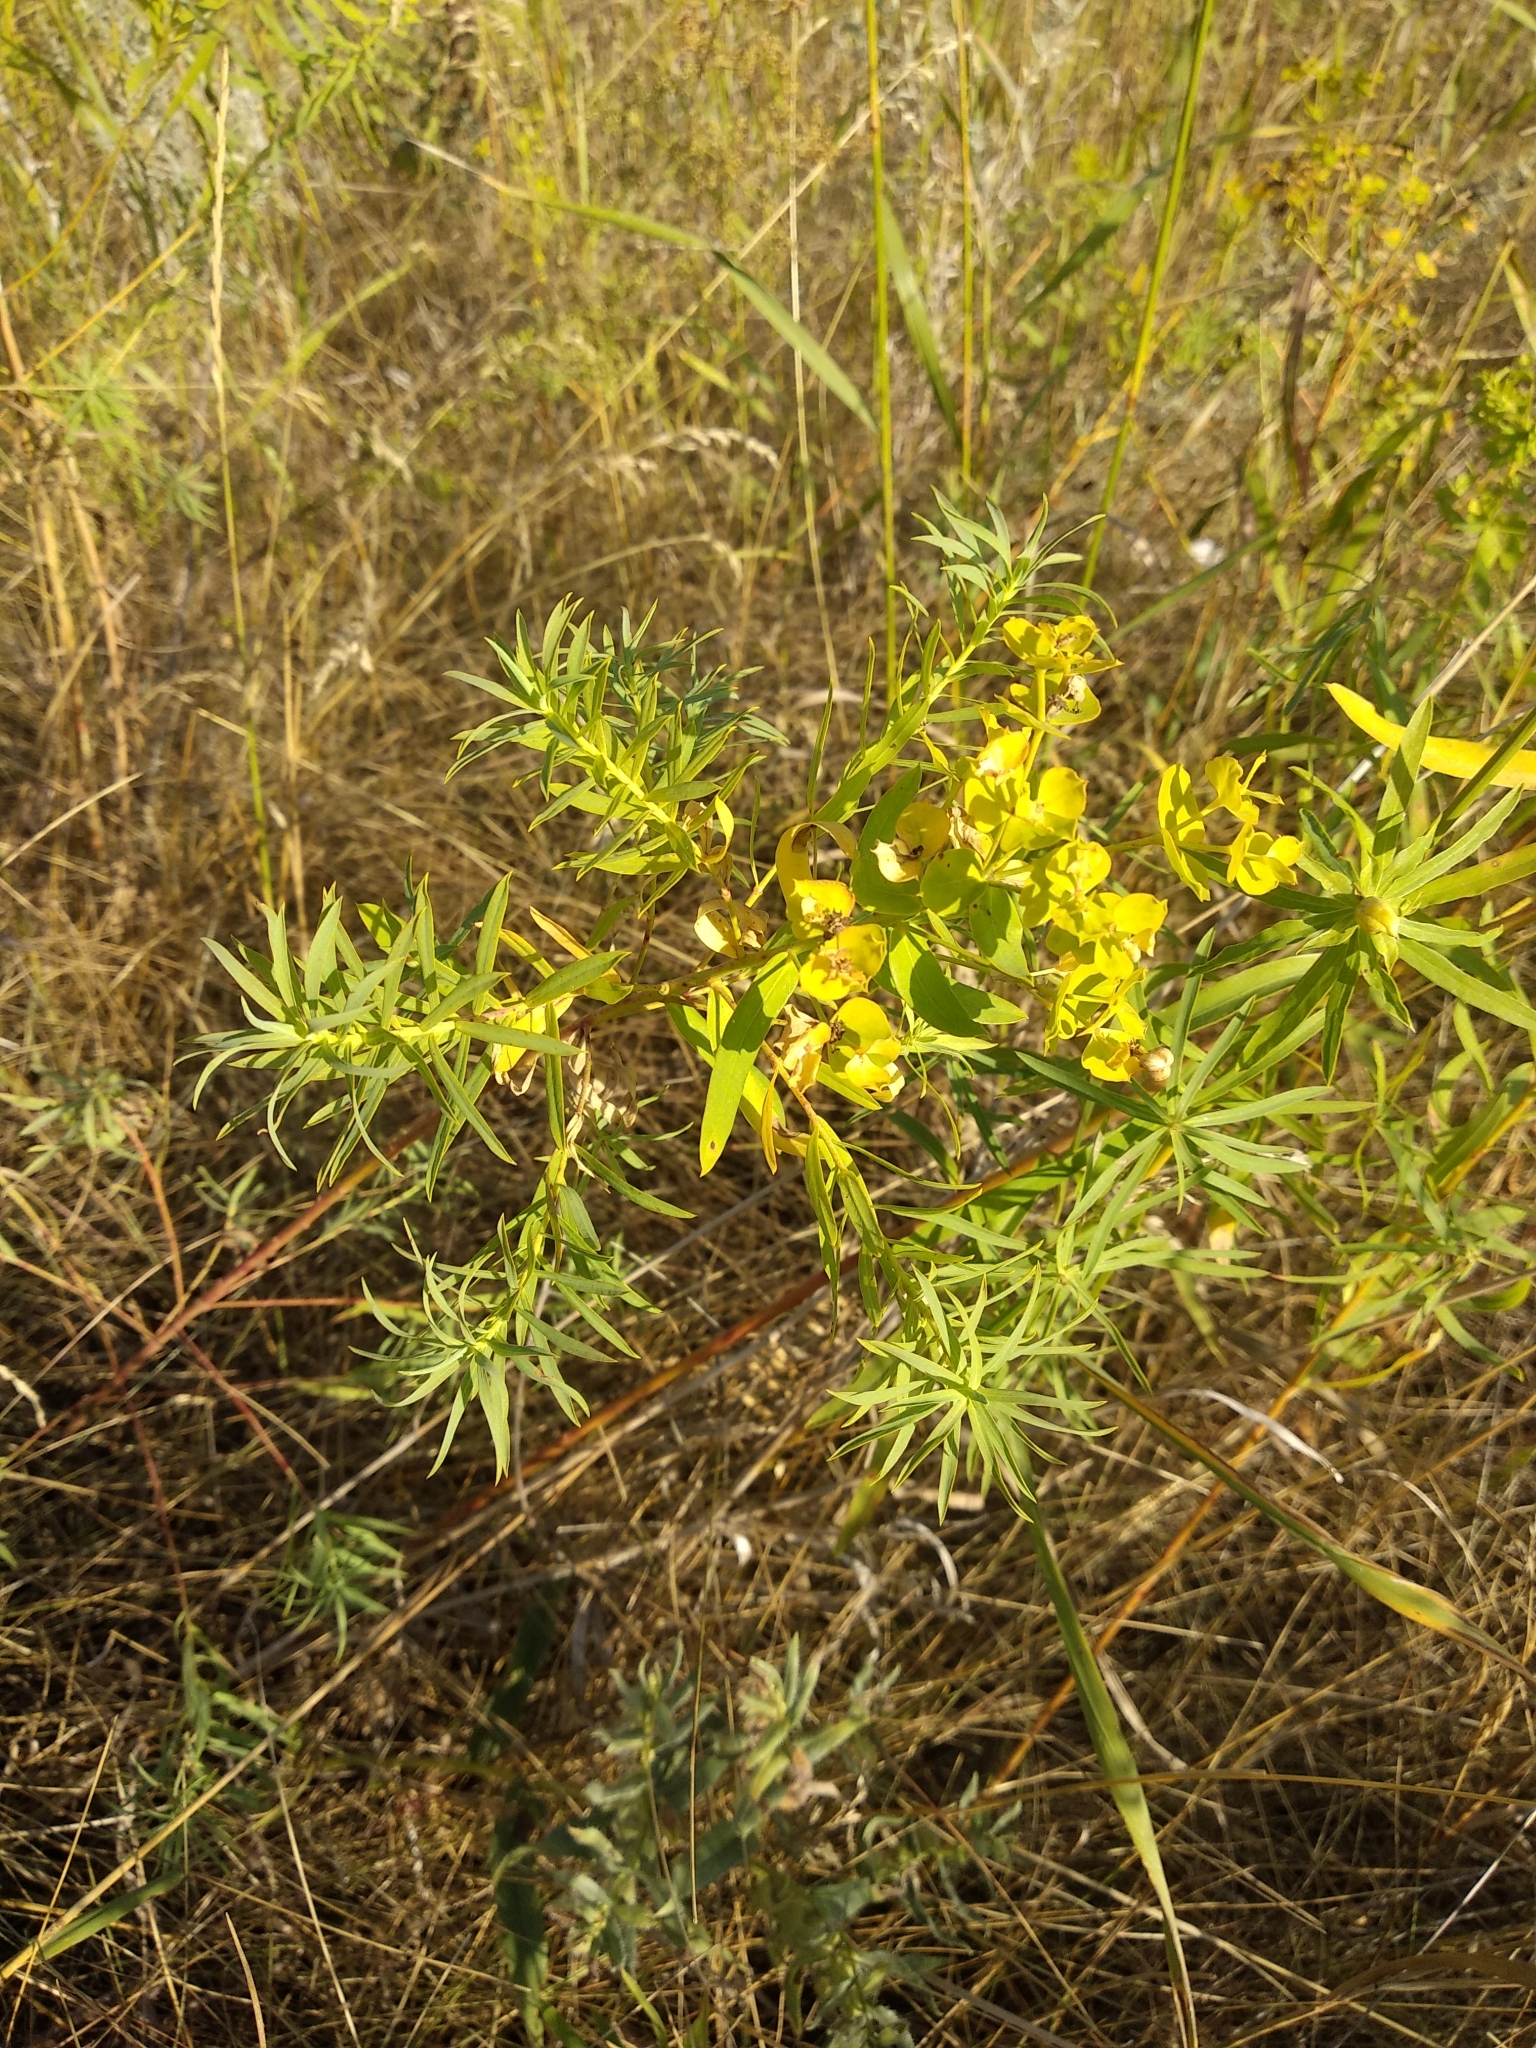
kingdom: Plantae
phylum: Tracheophyta
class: Magnoliopsida
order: Malpighiales
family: Euphorbiaceae
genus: Euphorbia
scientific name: Euphorbia virgata
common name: Leafy spurge
